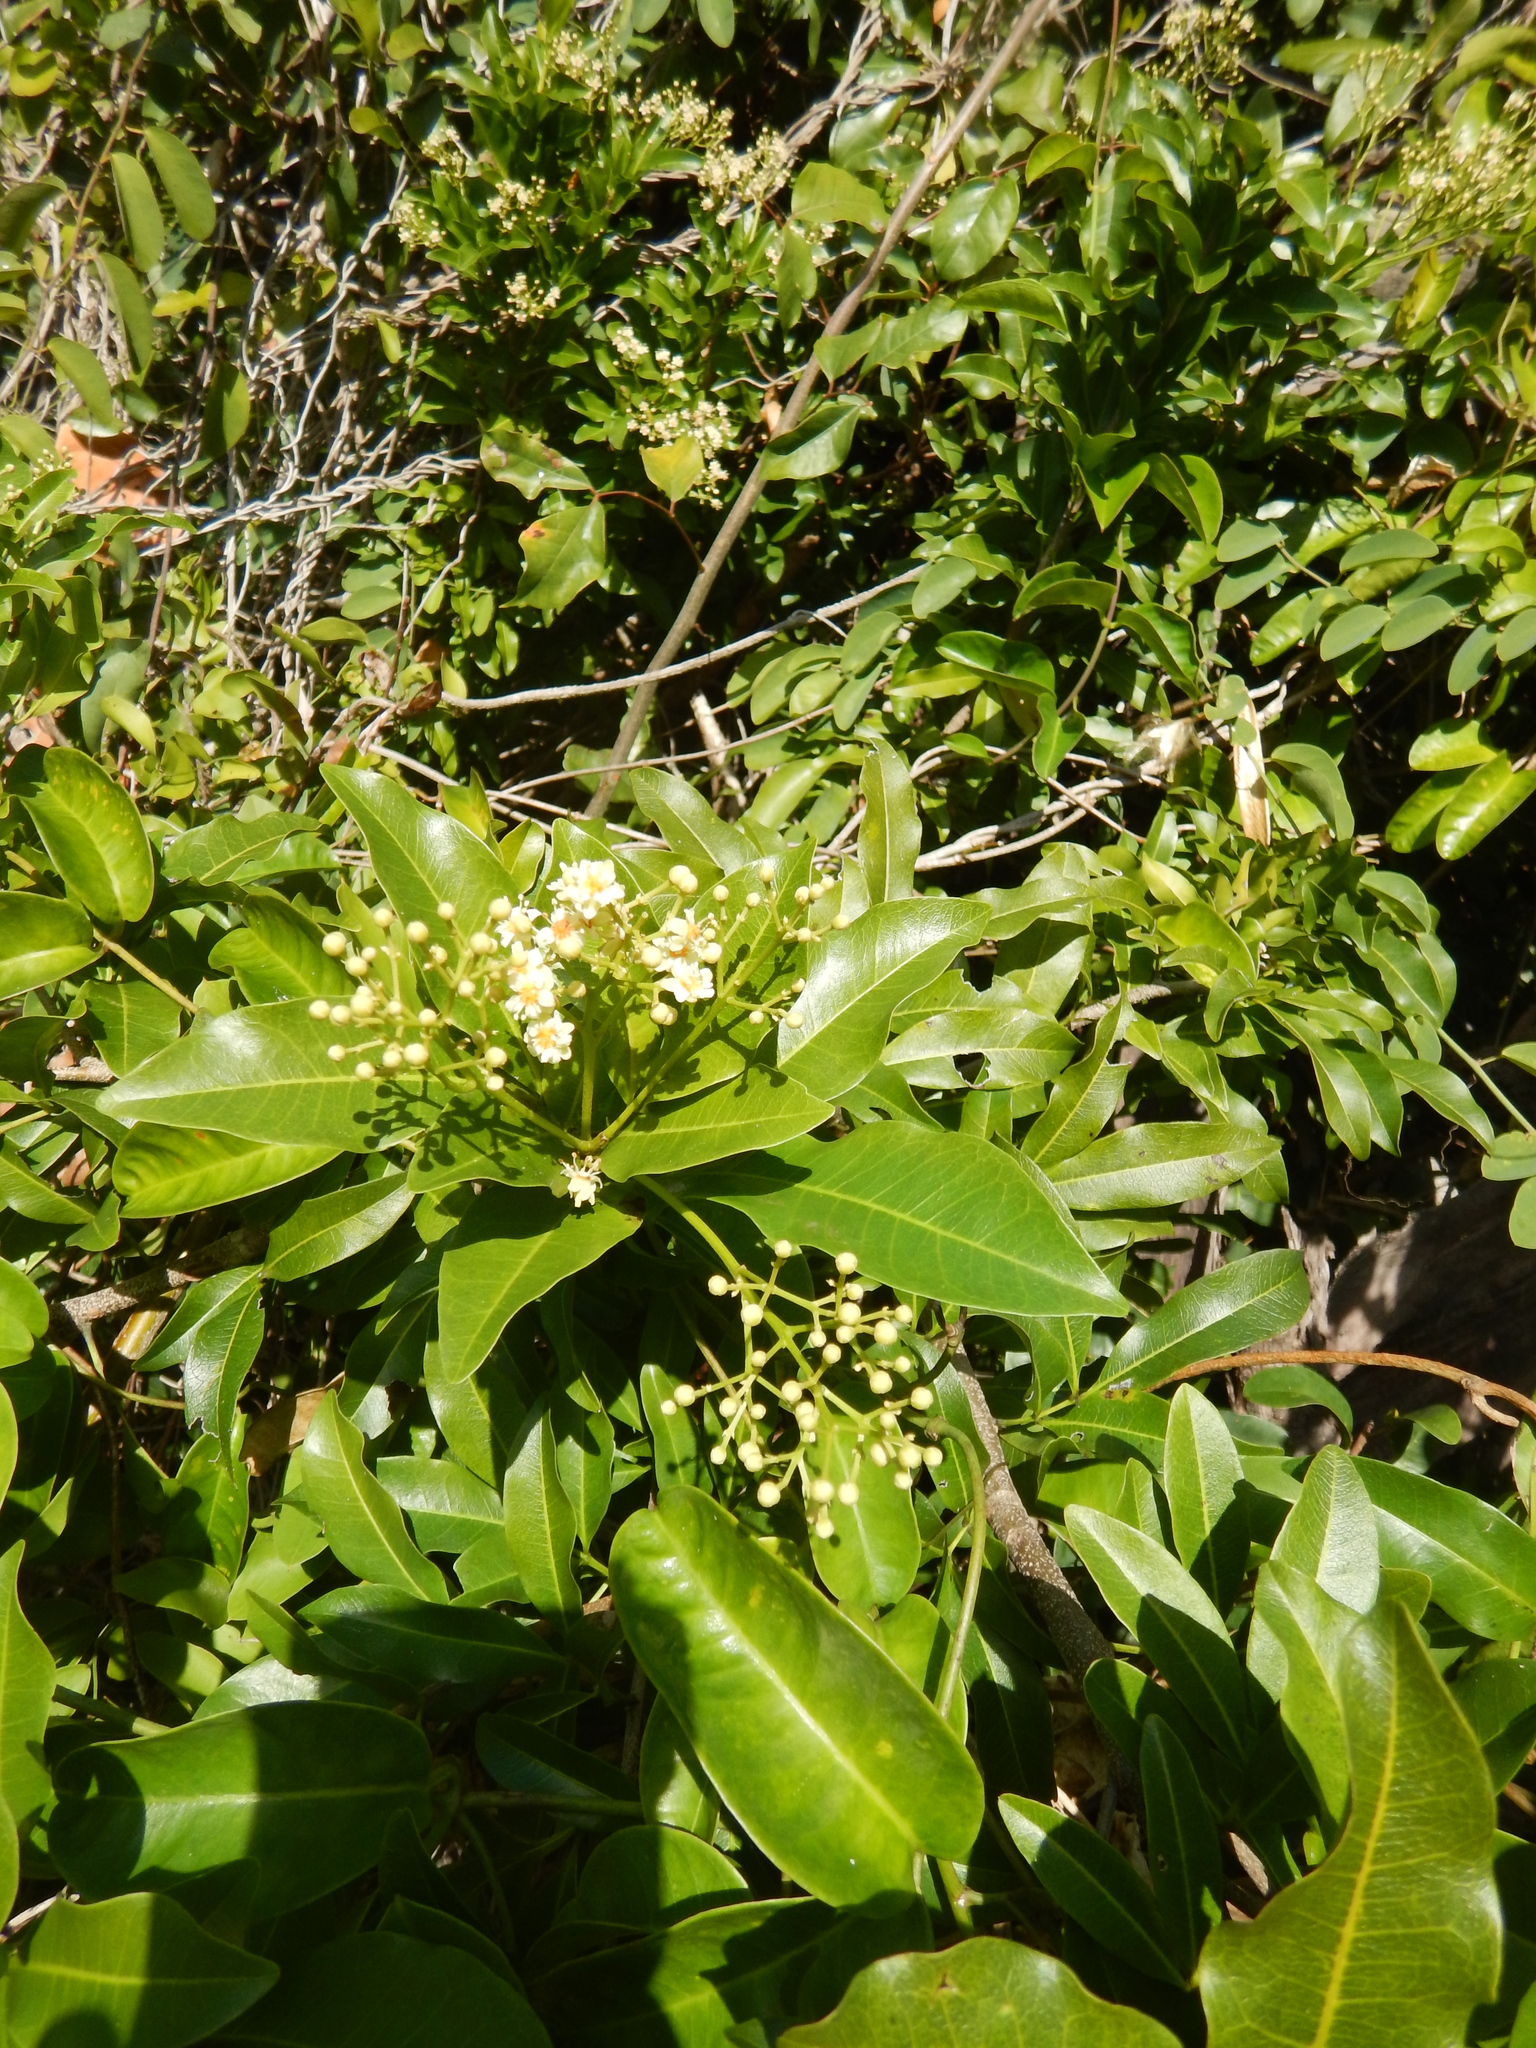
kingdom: Plantae
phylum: Tracheophyta
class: Magnoliopsida
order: Sapindales
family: Sapindaceae
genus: Exothea
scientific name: Exothea paniculata
